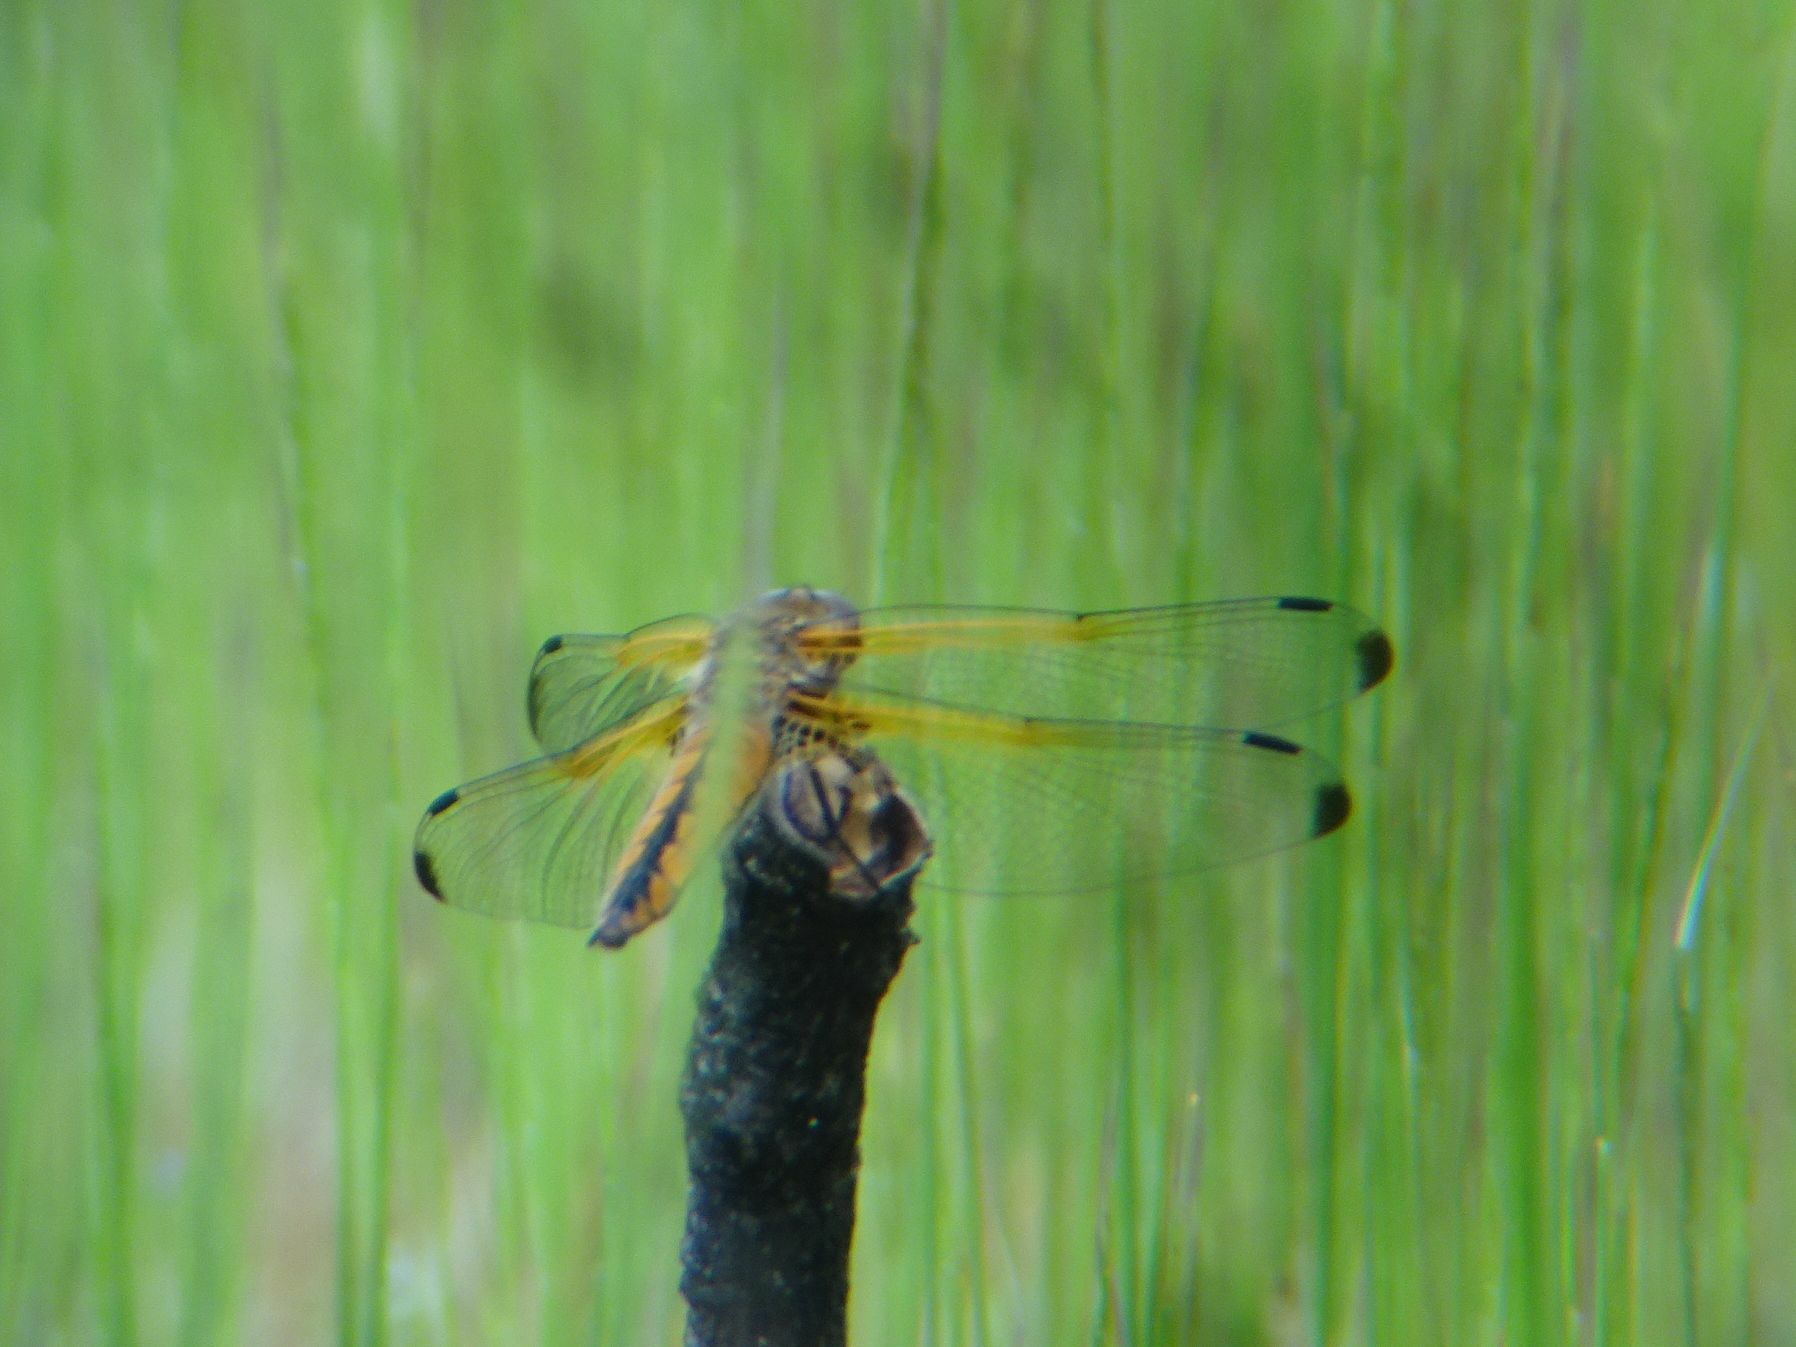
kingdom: Animalia
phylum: Arthropoda
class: Insecta
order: Odonata
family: Libellulidae
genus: Libellula
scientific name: Libellula fulva
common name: Blue chaser
